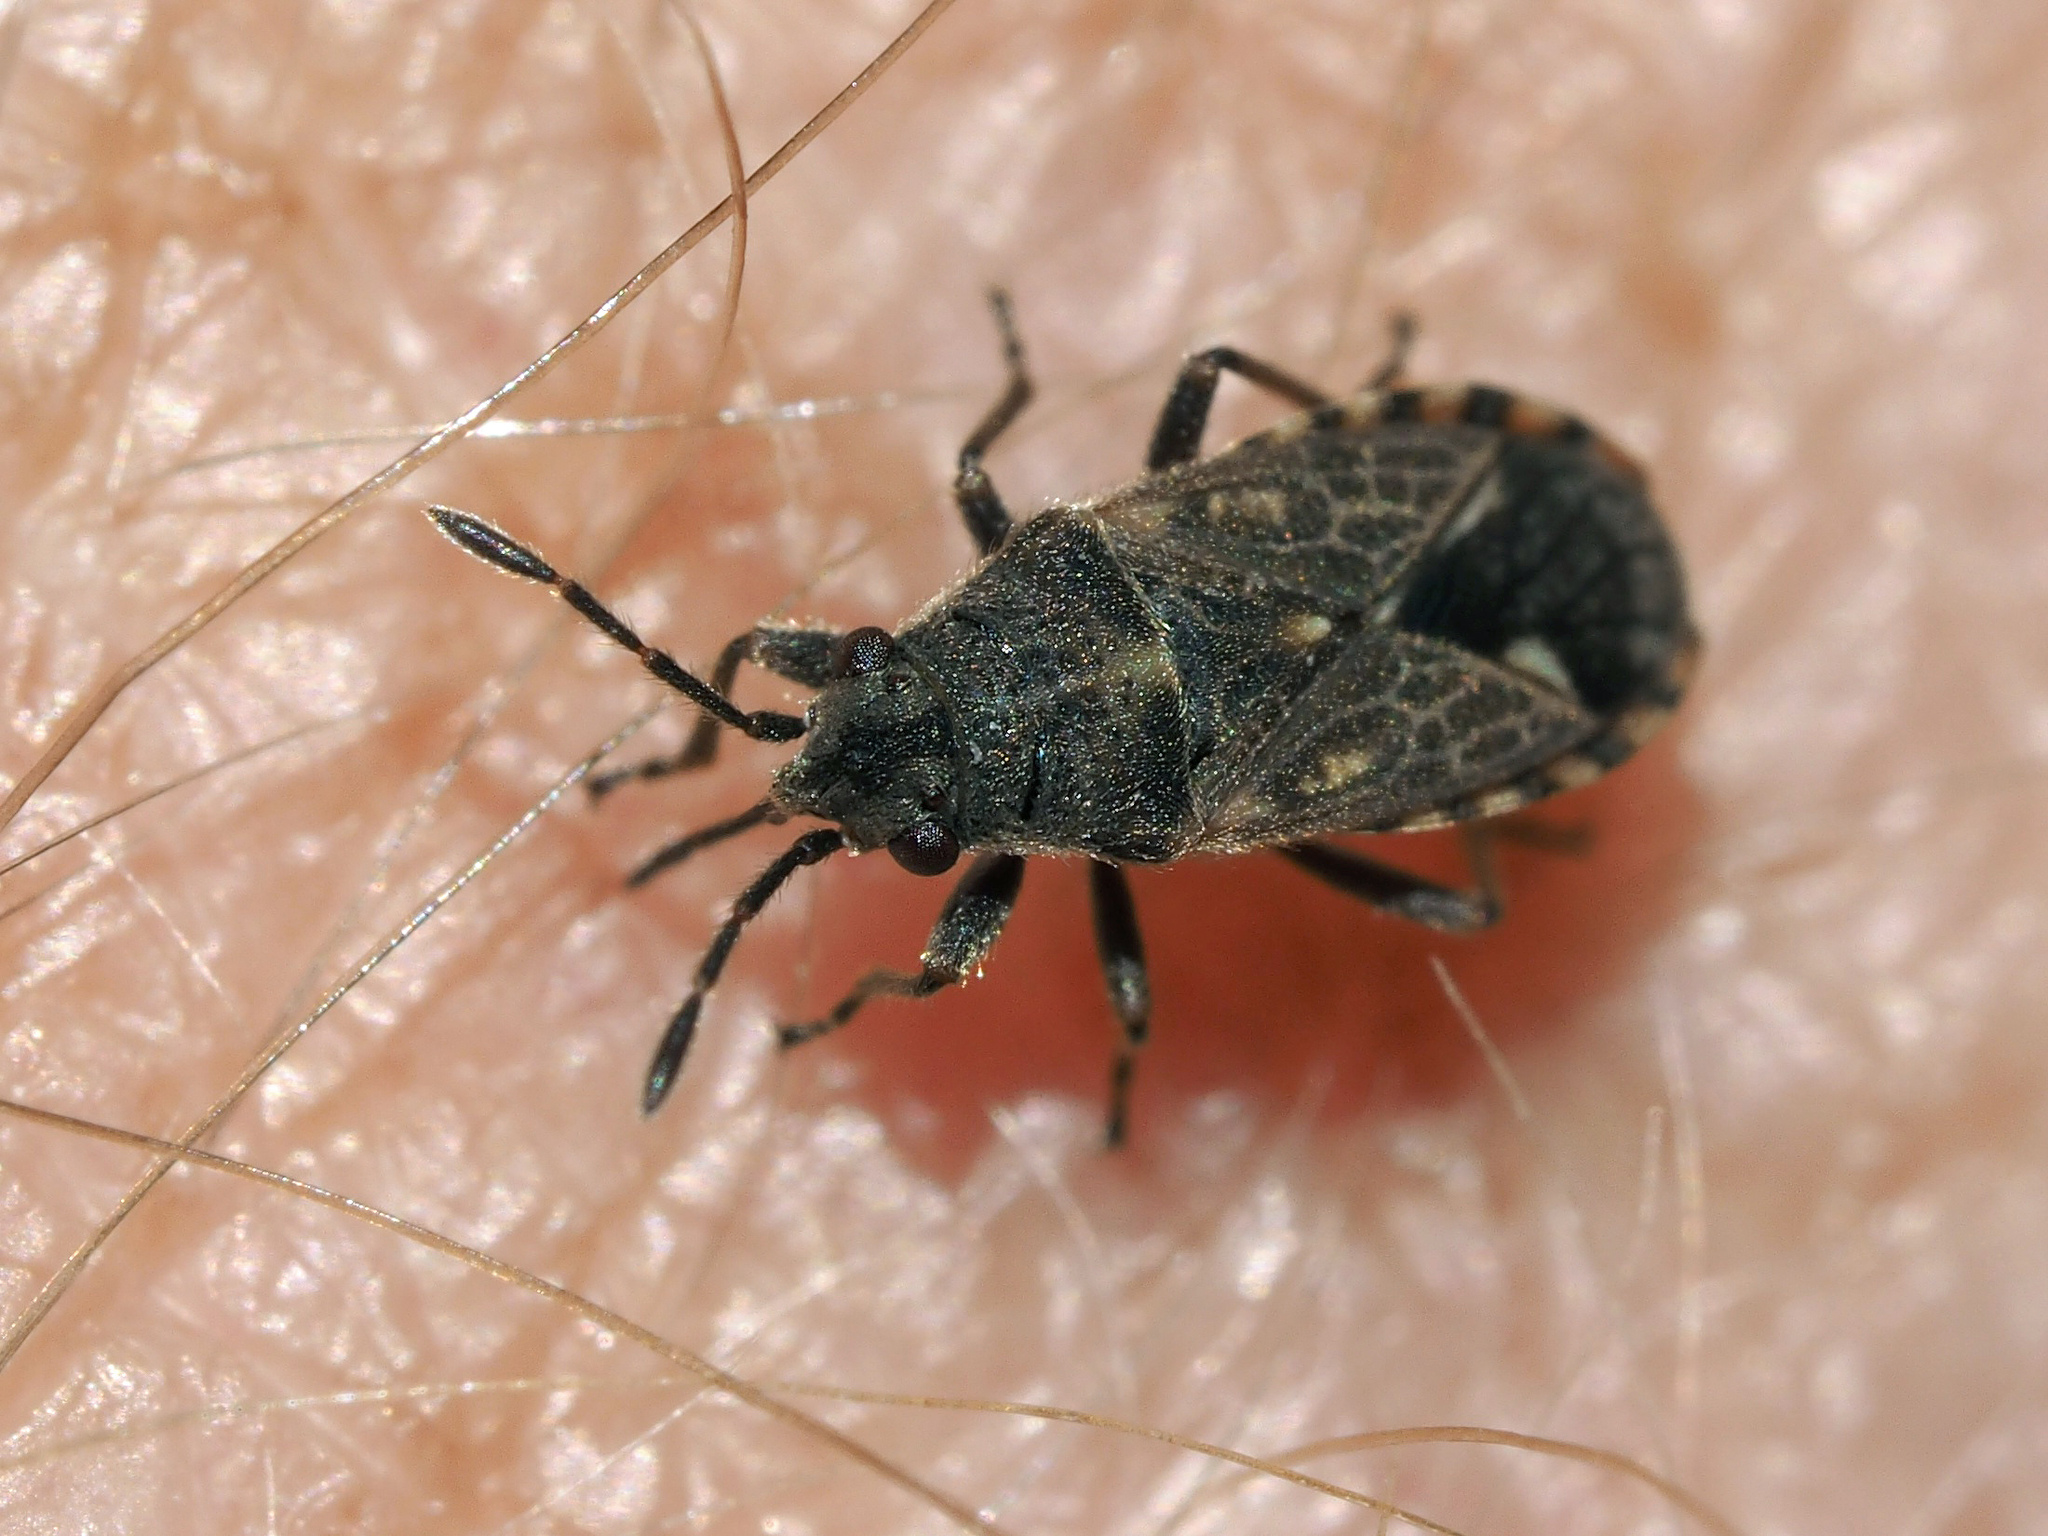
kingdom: Animalia
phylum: Arthropoda
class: Insecta
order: Hemiptera
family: Lygaeidae
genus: Lygaeosoma
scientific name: Lygaeosoma sardeum
